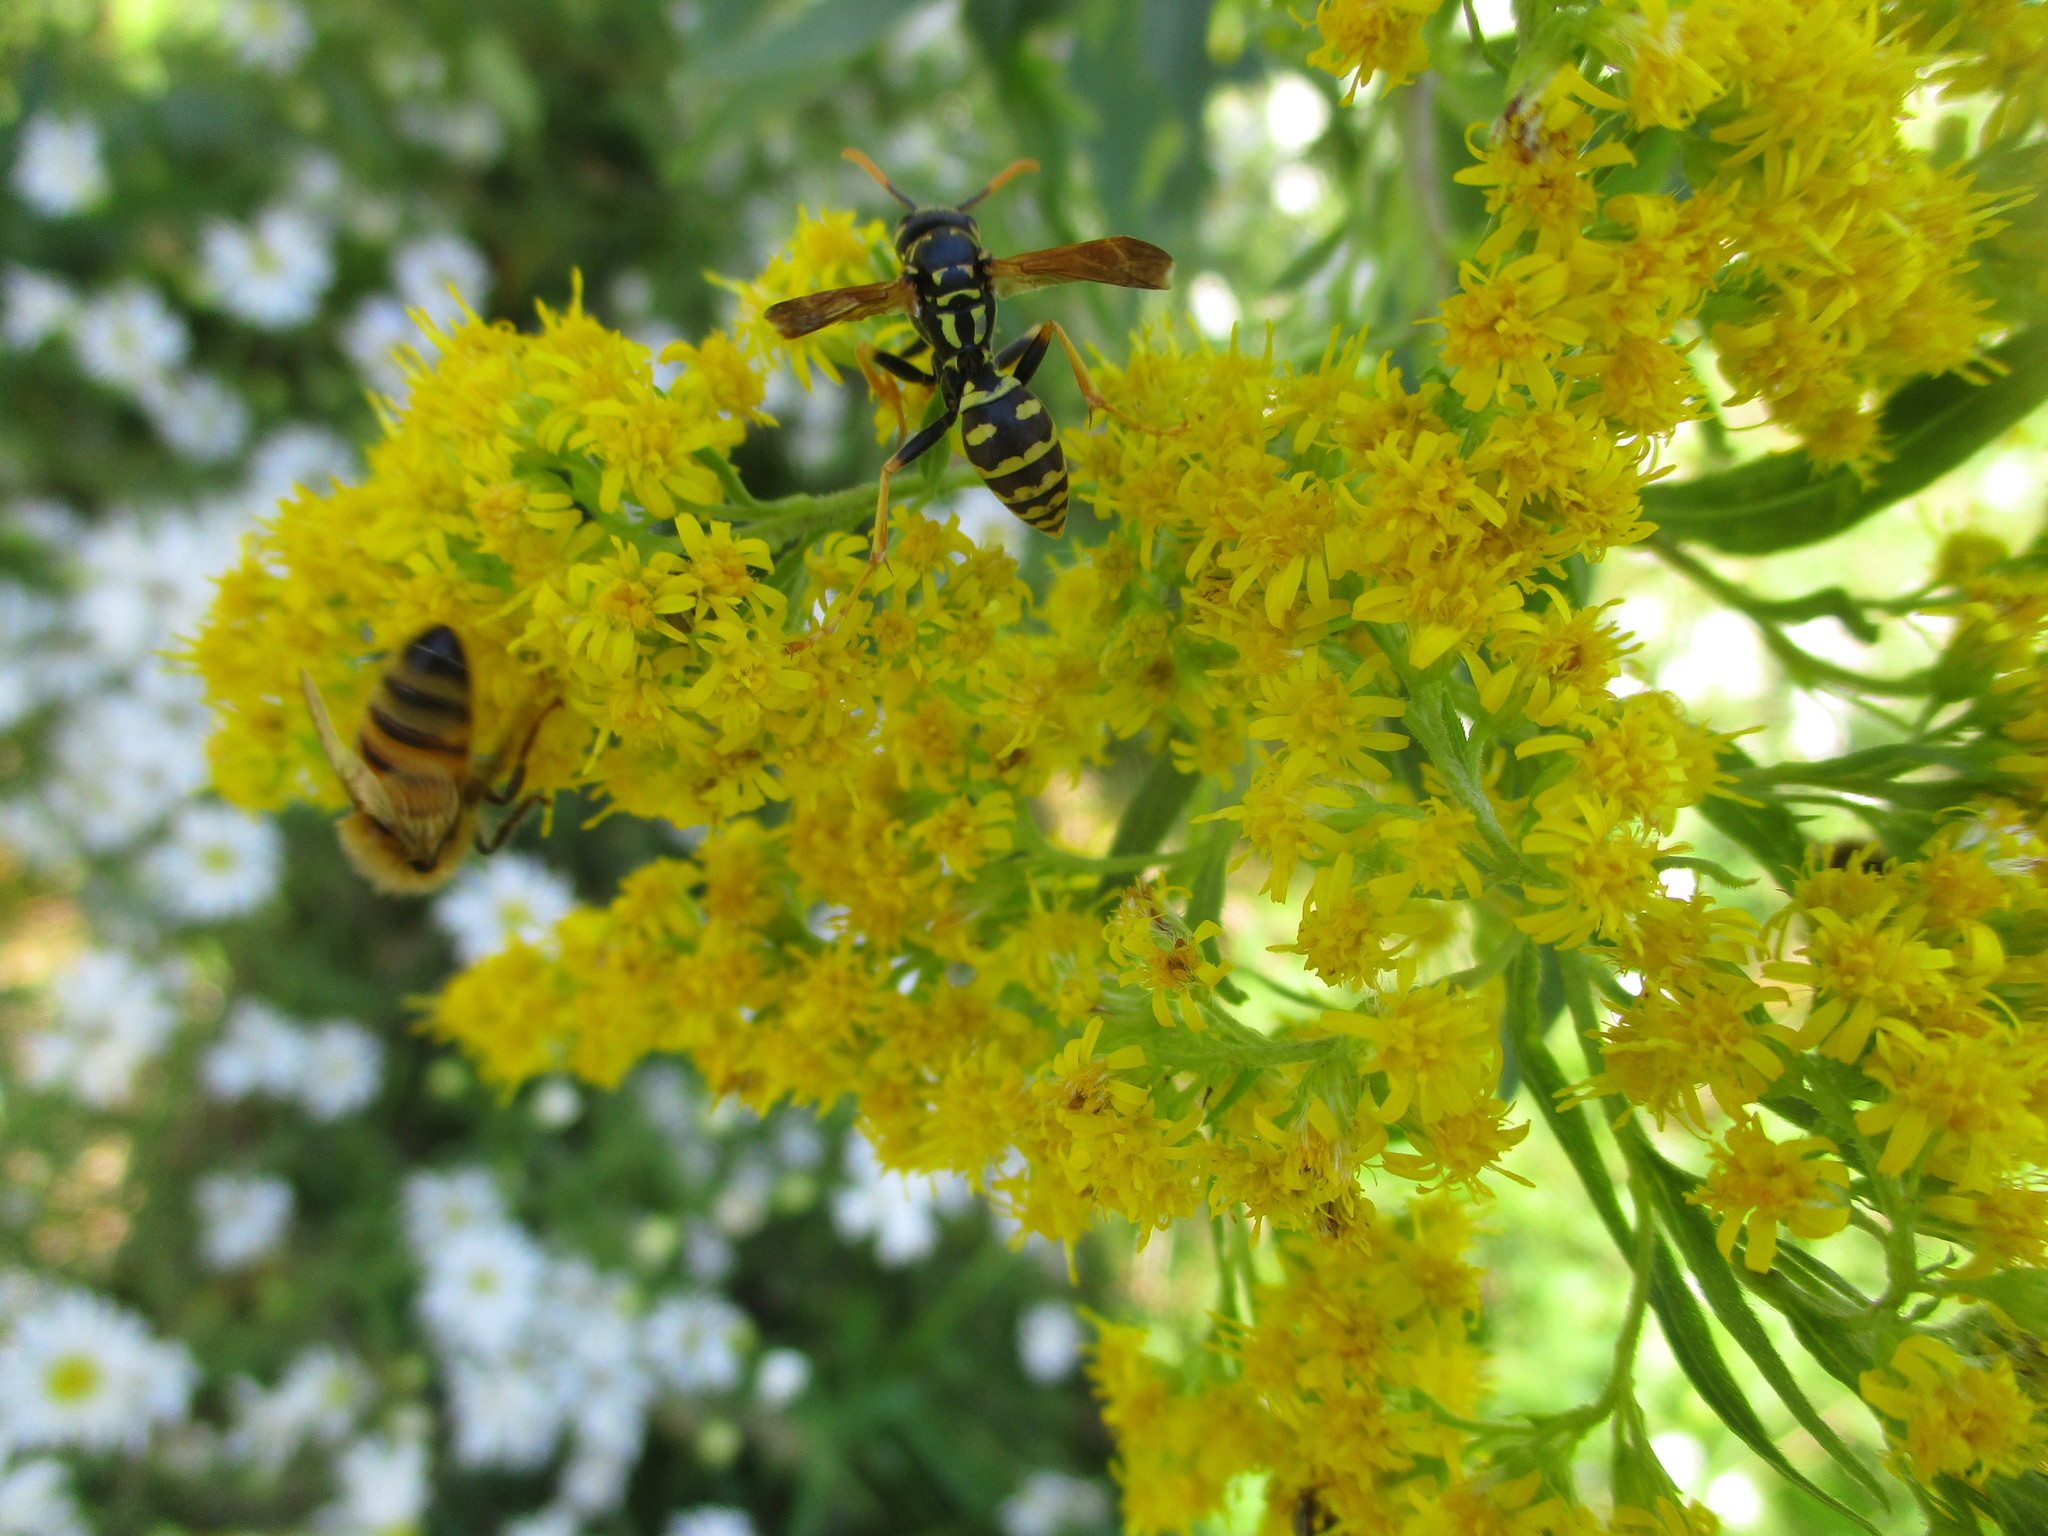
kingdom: Animalia
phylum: Arthropoda
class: Insecta
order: Hymenoptera
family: Eumenidae
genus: Polistes
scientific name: Polistes dominula
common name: Paper wasp
